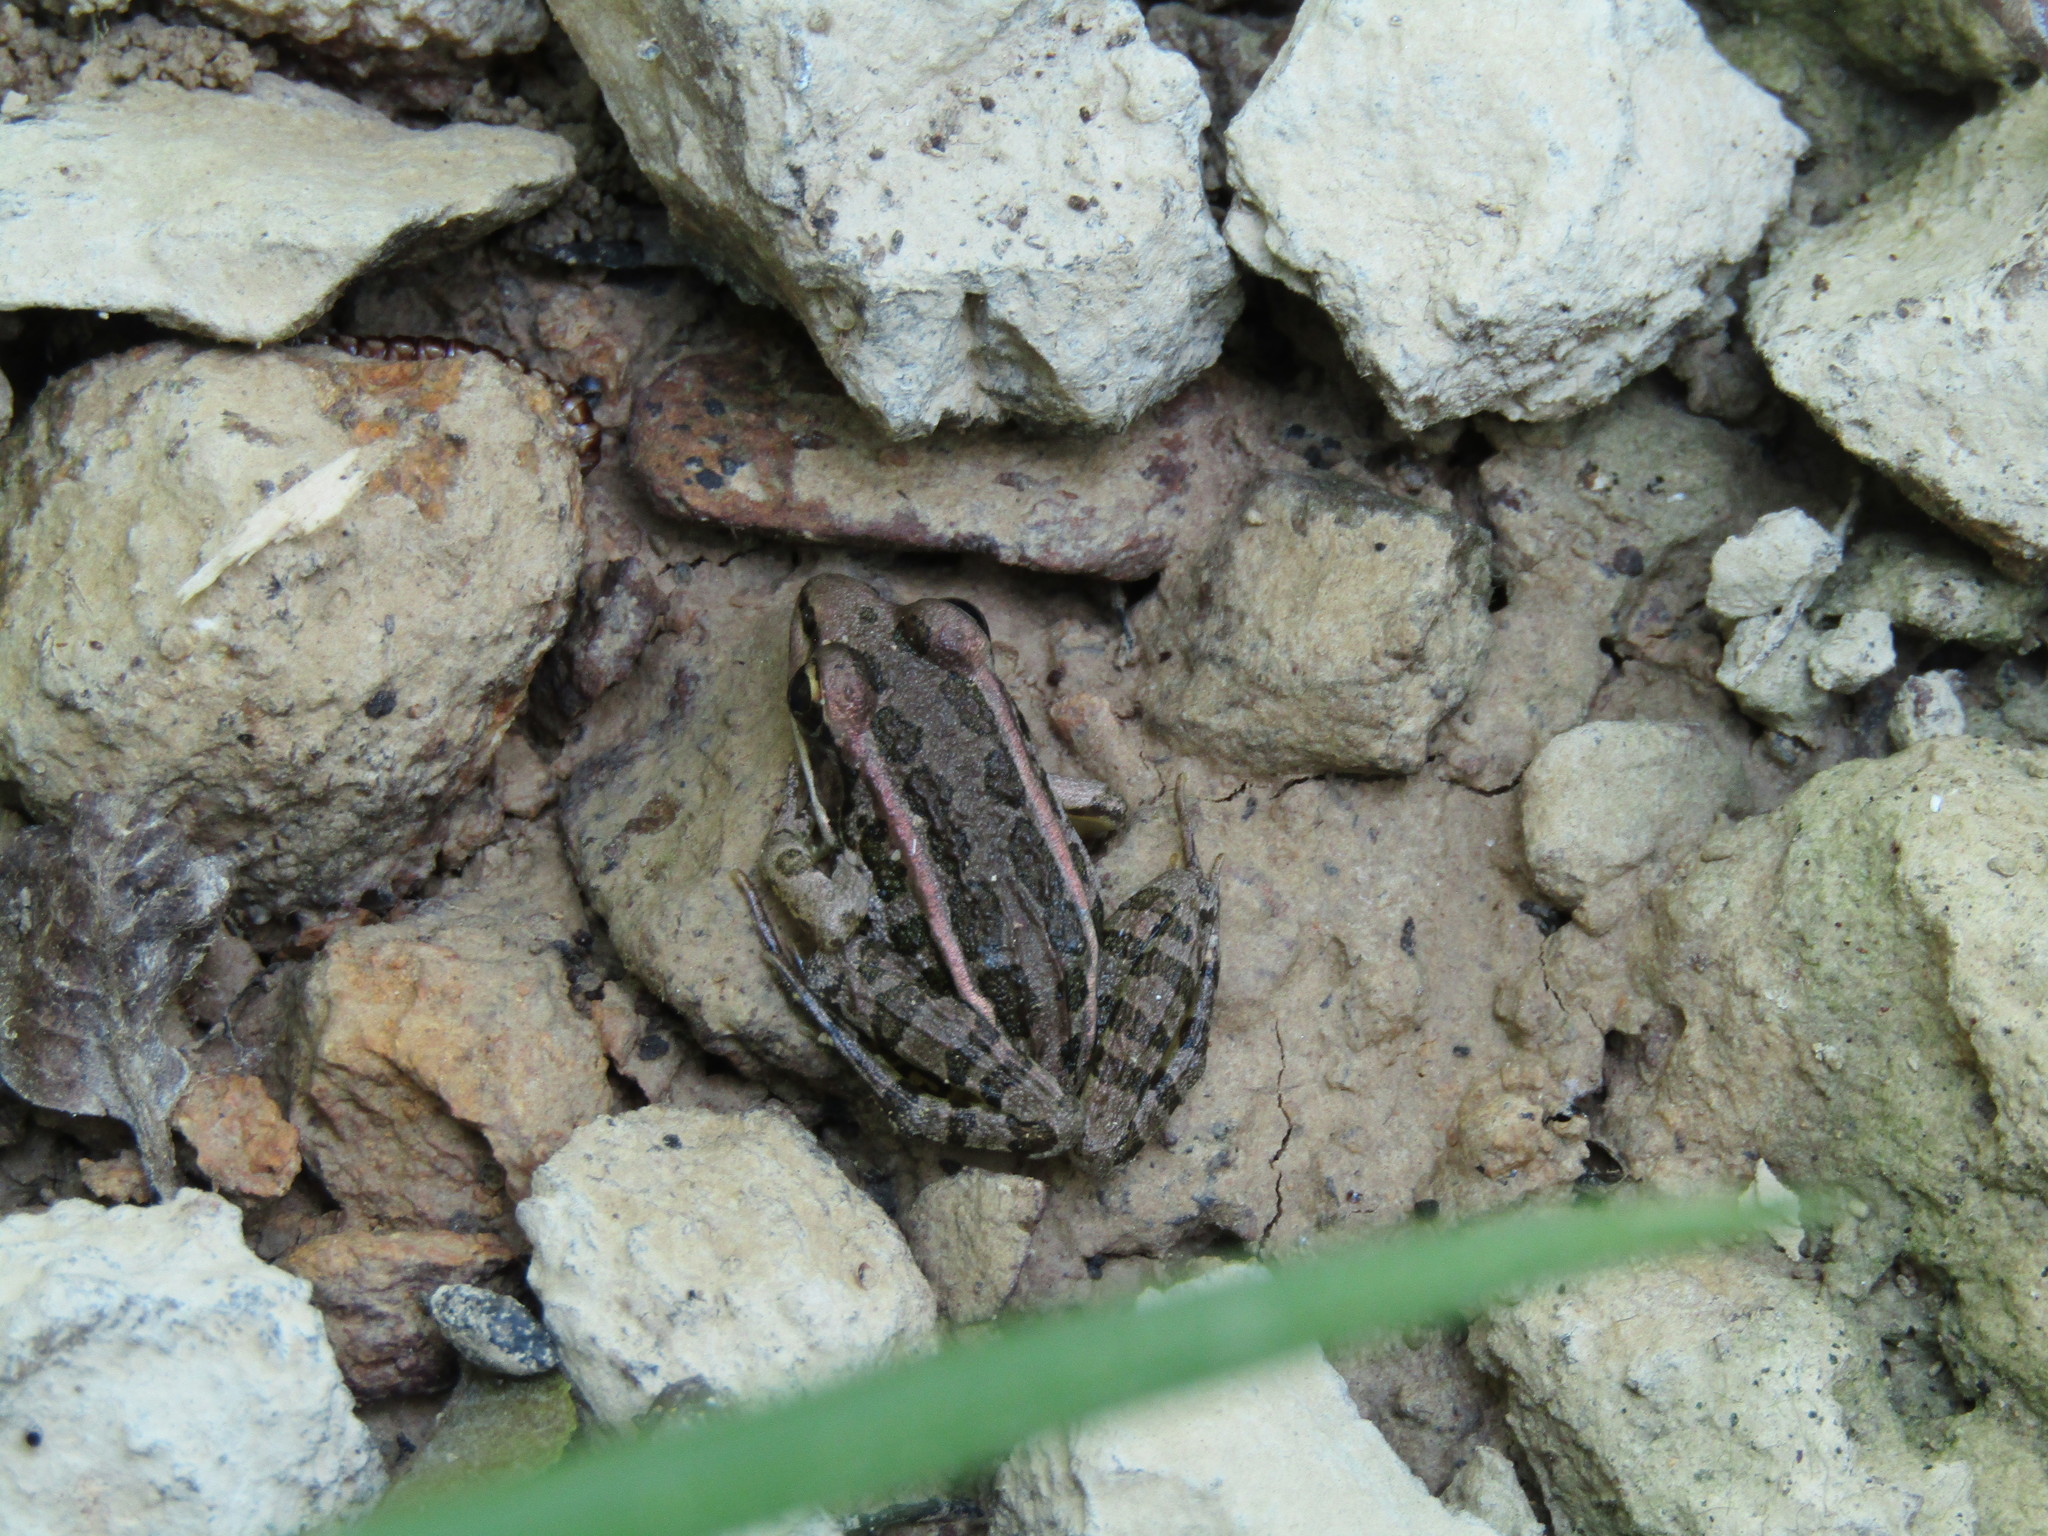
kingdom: Animalia
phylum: Chordata
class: Amphibia
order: Anura
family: Ranidae
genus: Lithobates
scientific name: Lithobates palustris
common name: Pickerel frog
